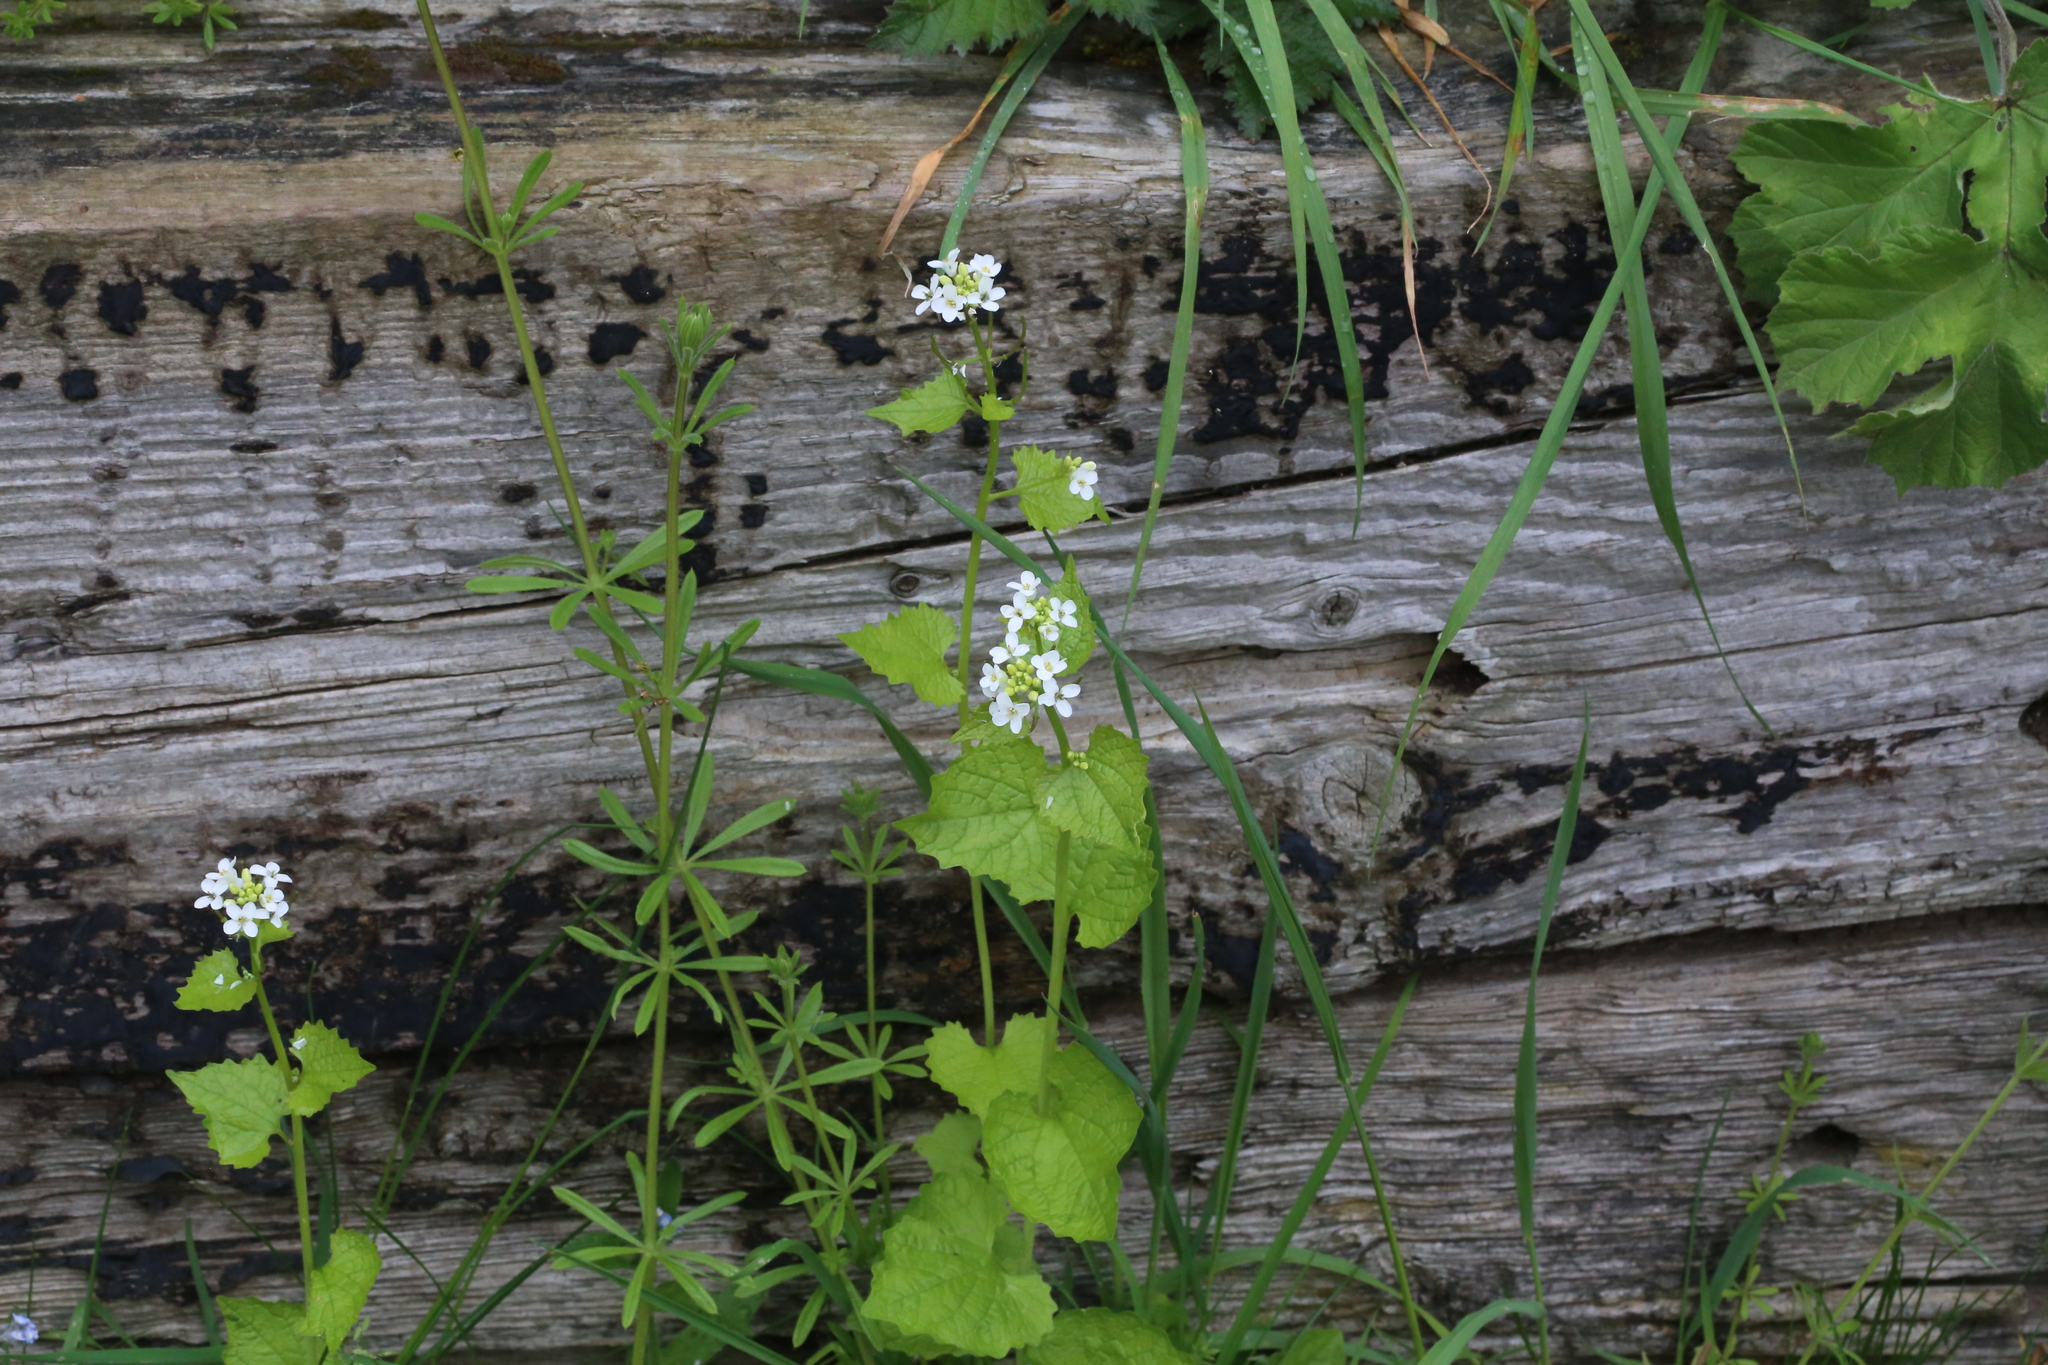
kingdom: Plantae
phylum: Tracheophyta
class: Magnoliopsida
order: Brassicales
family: Brassicaceae
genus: Alliaria
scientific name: Alliaria petiolata
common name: Garlic mustard
